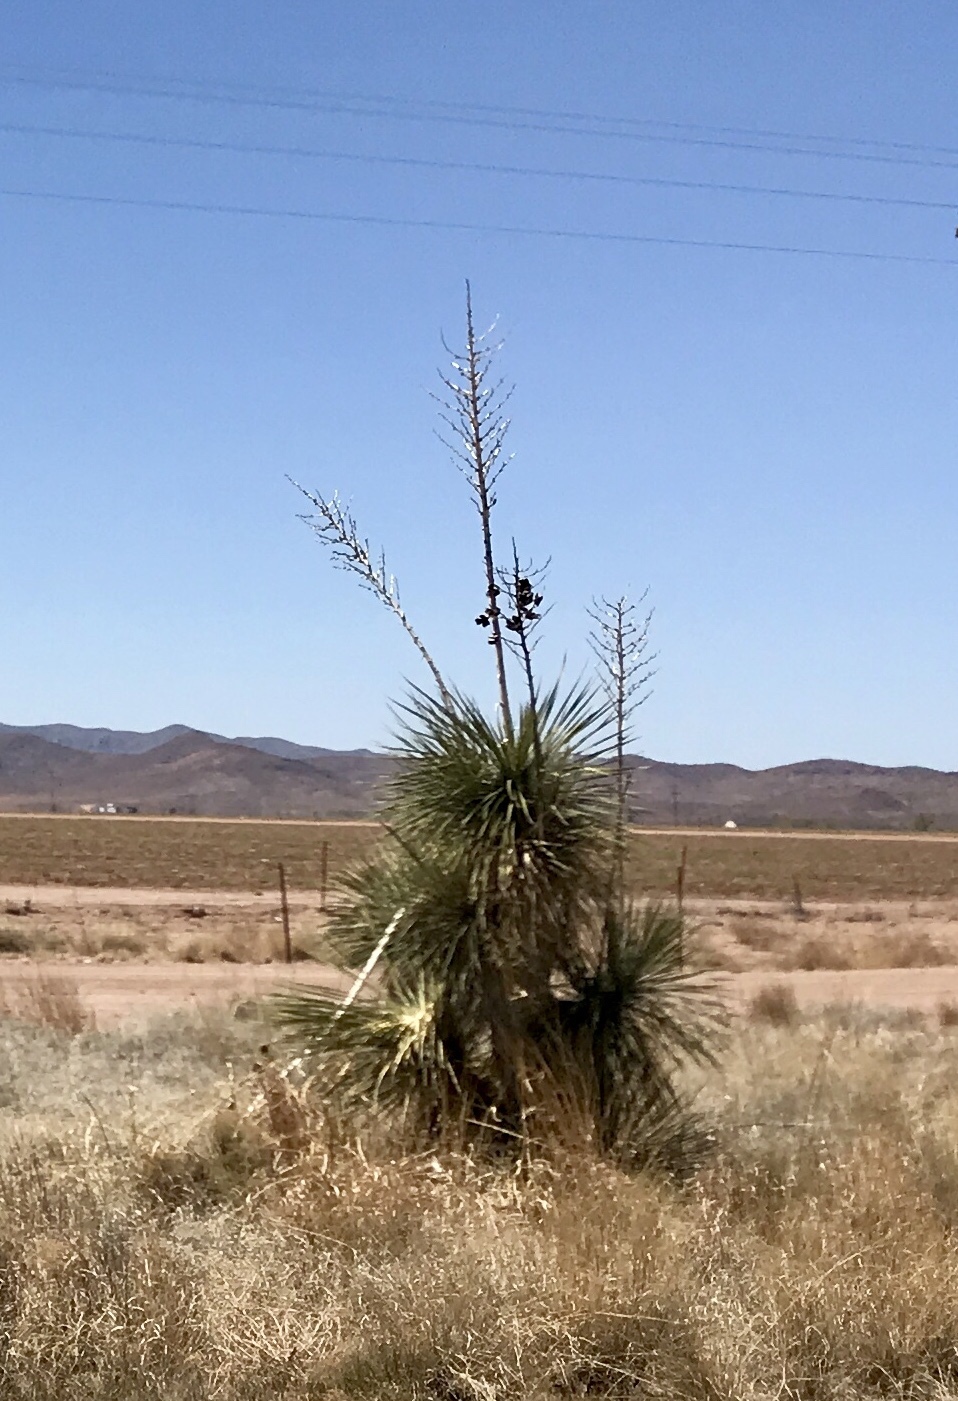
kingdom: Plantae
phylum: Tracheophyta
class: Liliopsida
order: Asparagales
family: Asparagaceae
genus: Yucca
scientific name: Yucca elata
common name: Palmella
